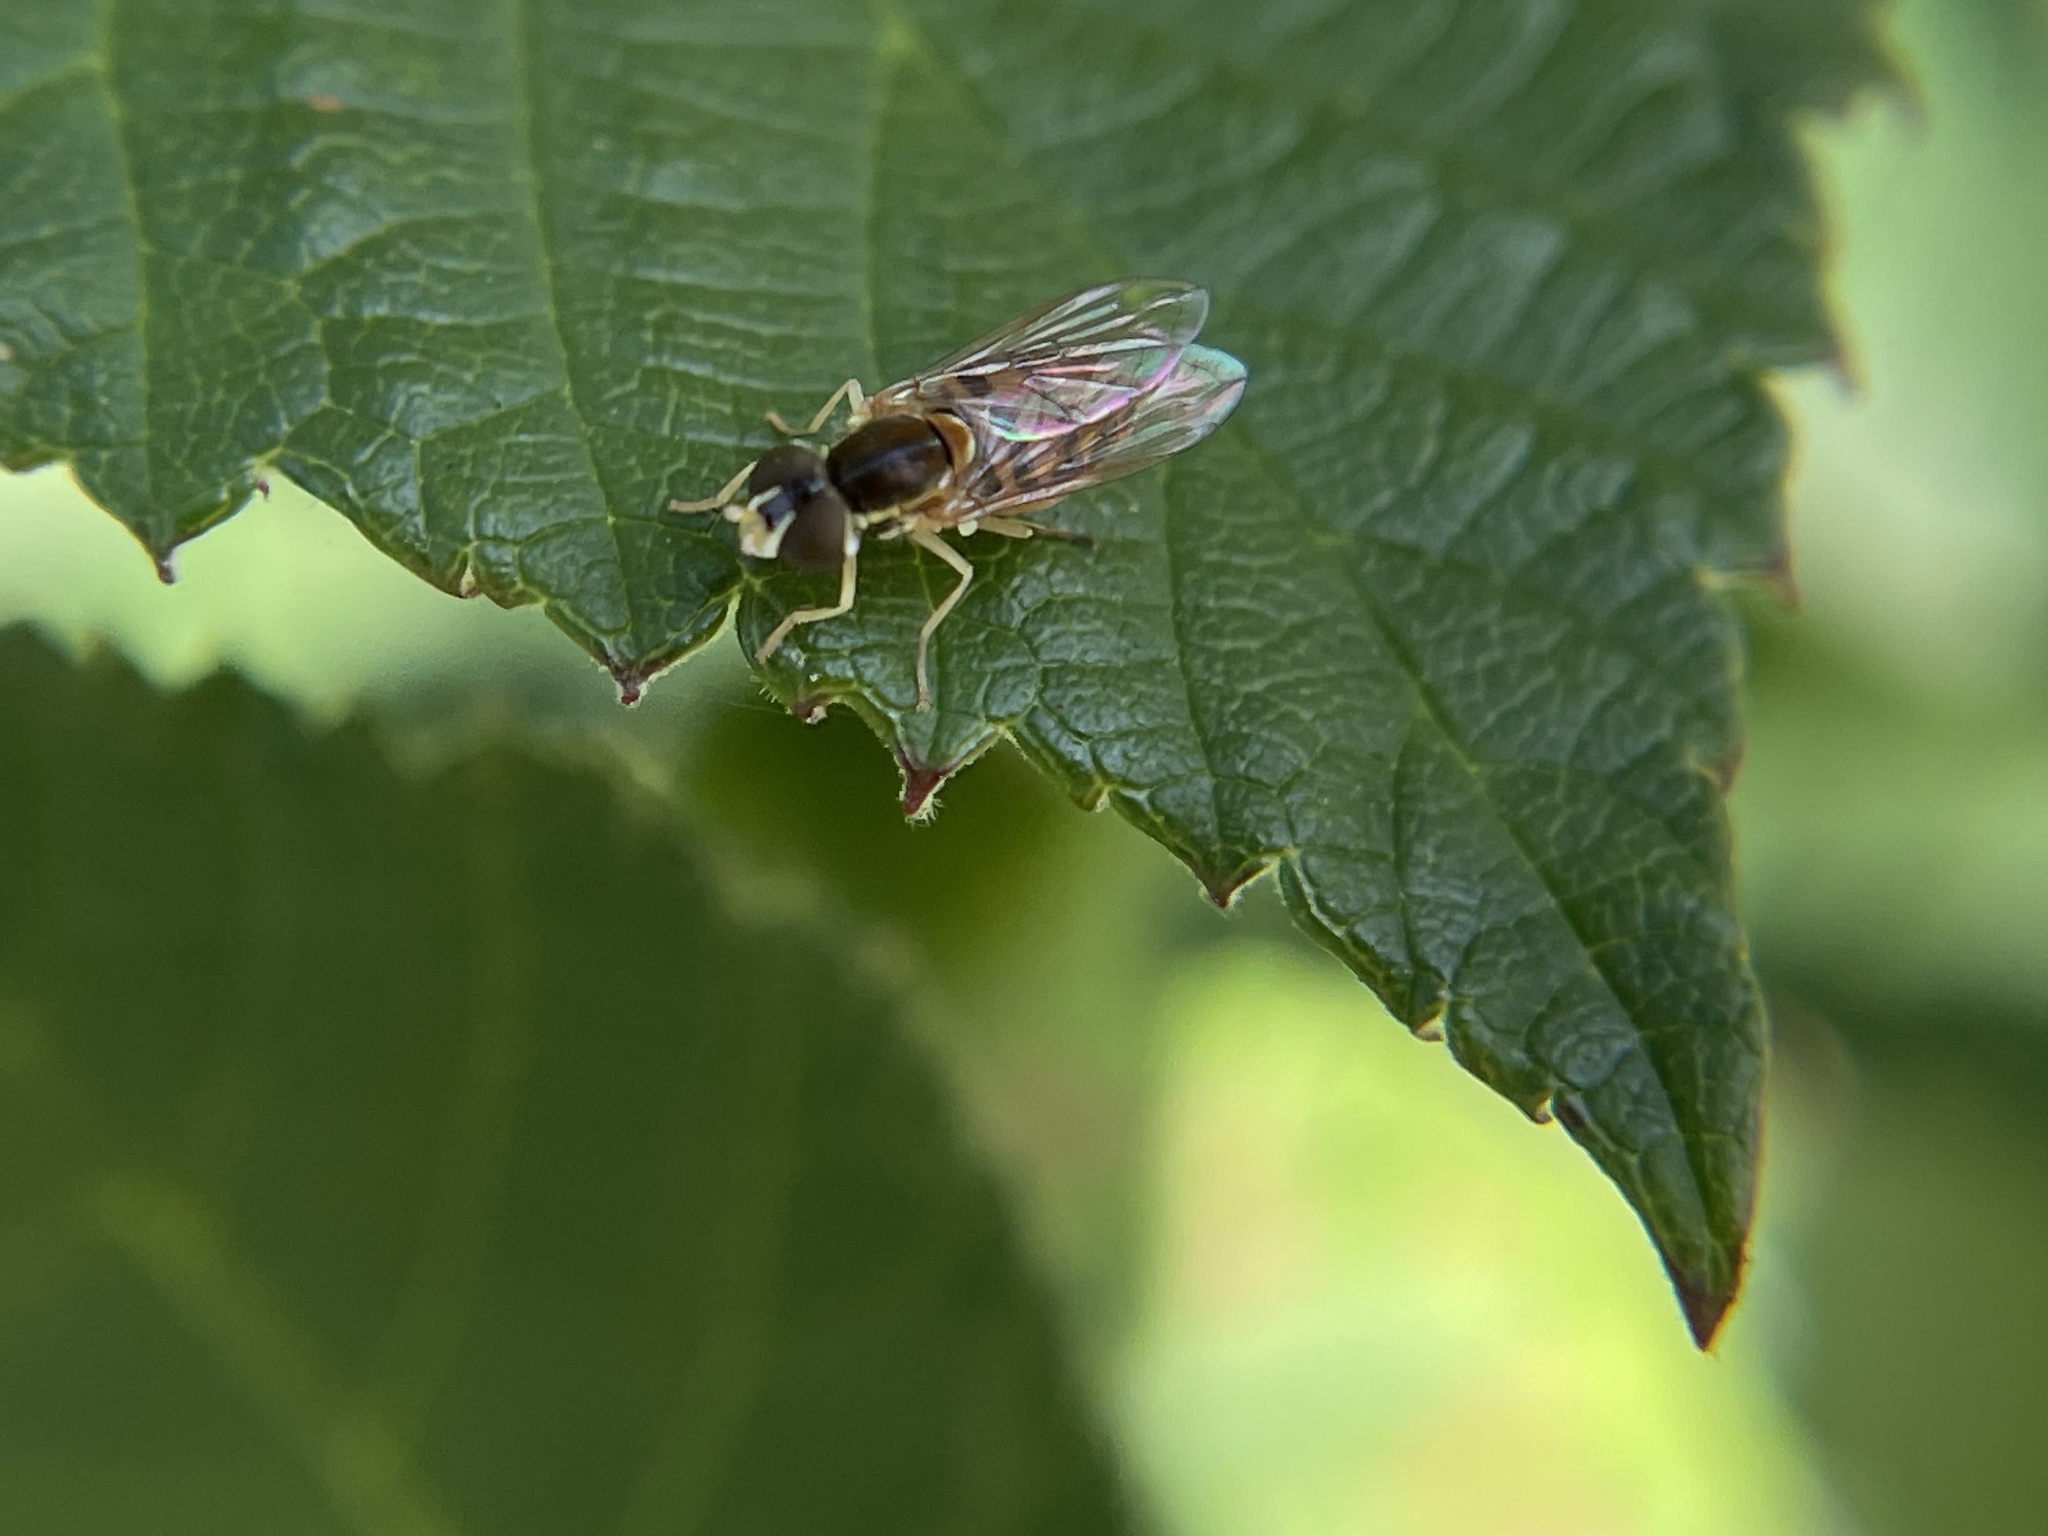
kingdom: Animalia
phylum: Arthropoda
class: Insecta
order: Diptera
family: Syrphidae
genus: Toxomerus
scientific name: Toxomerus marginatus
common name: Syrphid fly
